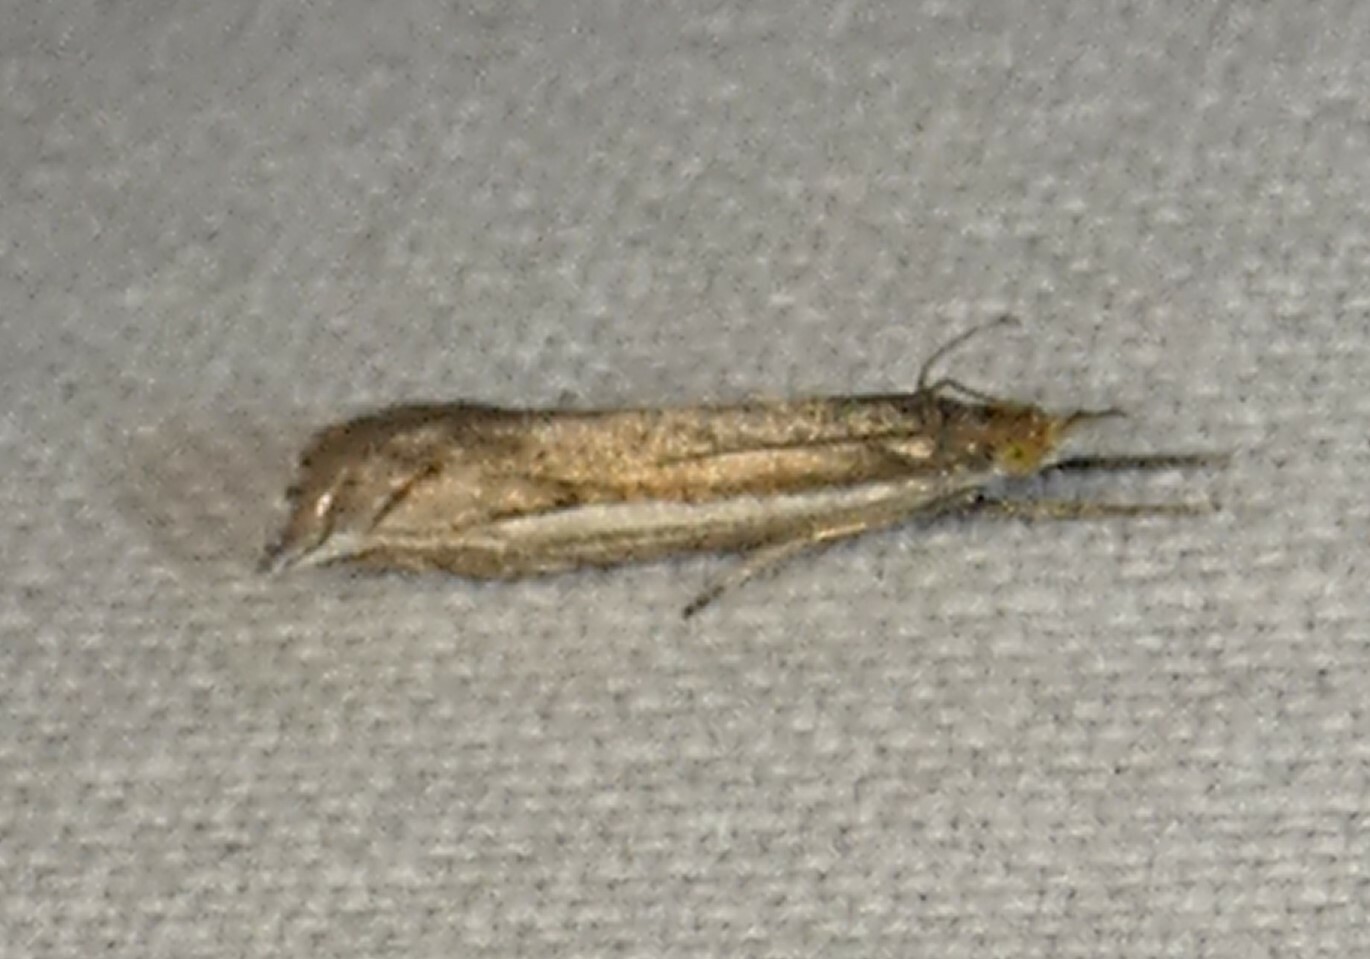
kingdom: Animalia
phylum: Arthropoda
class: Insecta
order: Lepidoptera
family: Crambidae
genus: Raphiptera
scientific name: Raphiptera argillaceellus
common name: Diminutive grass-veneer
